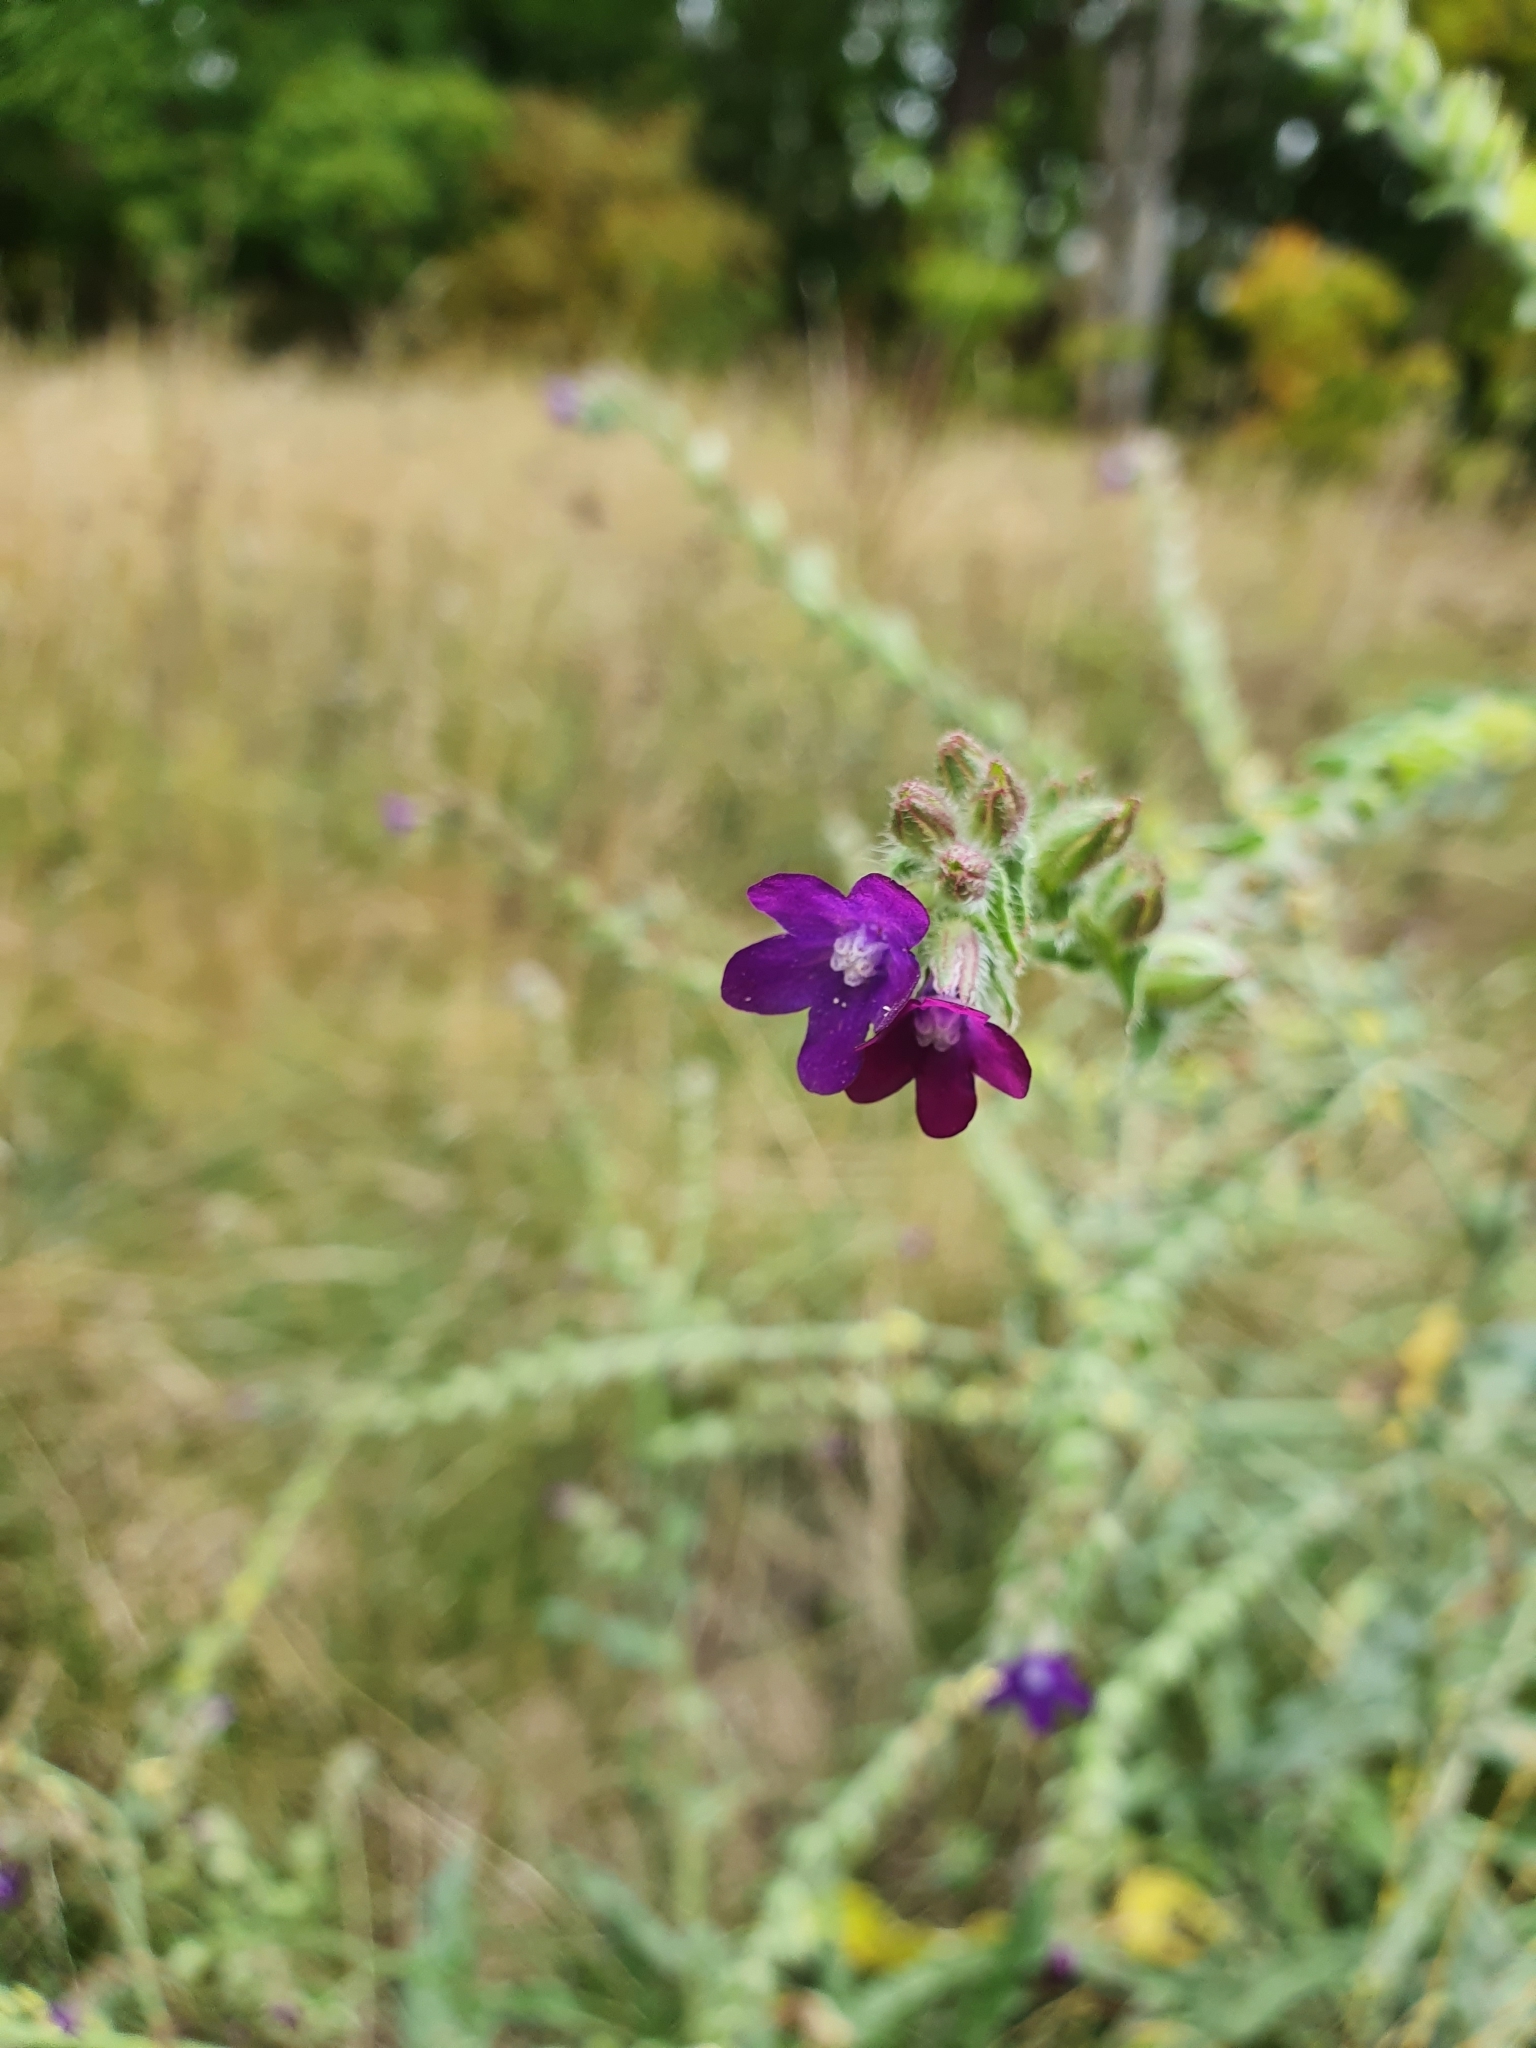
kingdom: Plantae
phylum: Tracheophyta
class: Magnoliopsida
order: Boraginales
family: Boraginaceae
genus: Anchusa
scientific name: Anchusa officinalis
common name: Alkanet
